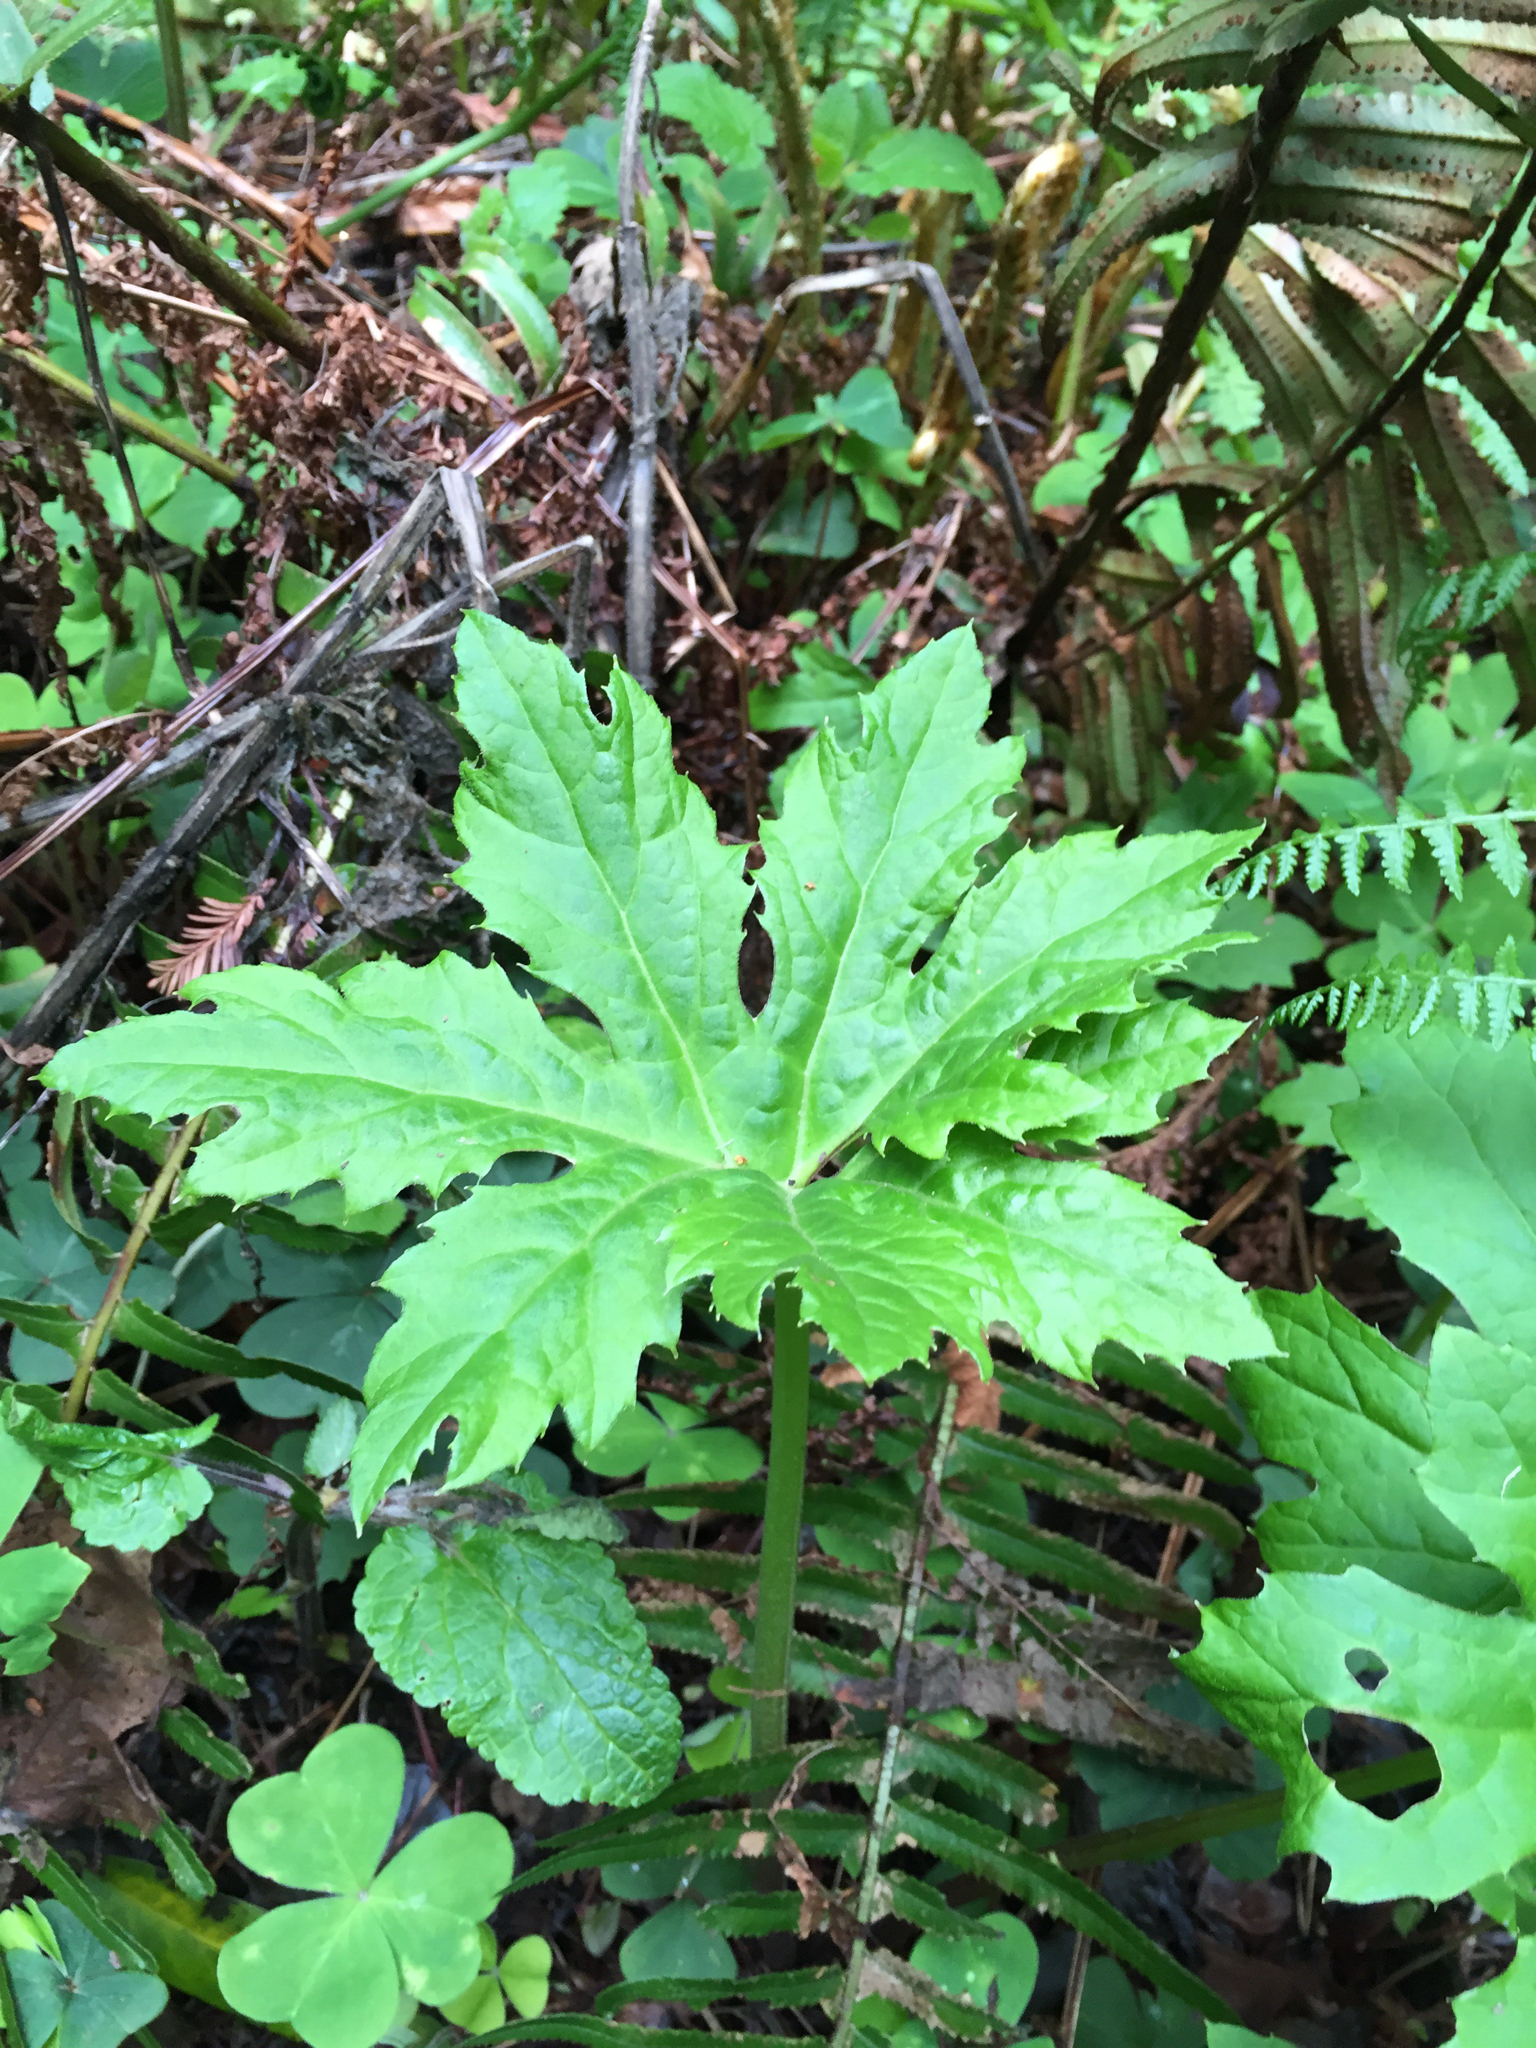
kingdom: Plantae
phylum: Tracheophyta
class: Magnoliopsida
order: Asterales
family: Asteraceae
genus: Petasites
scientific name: Petasites frigidus
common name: Arctic butterbur
